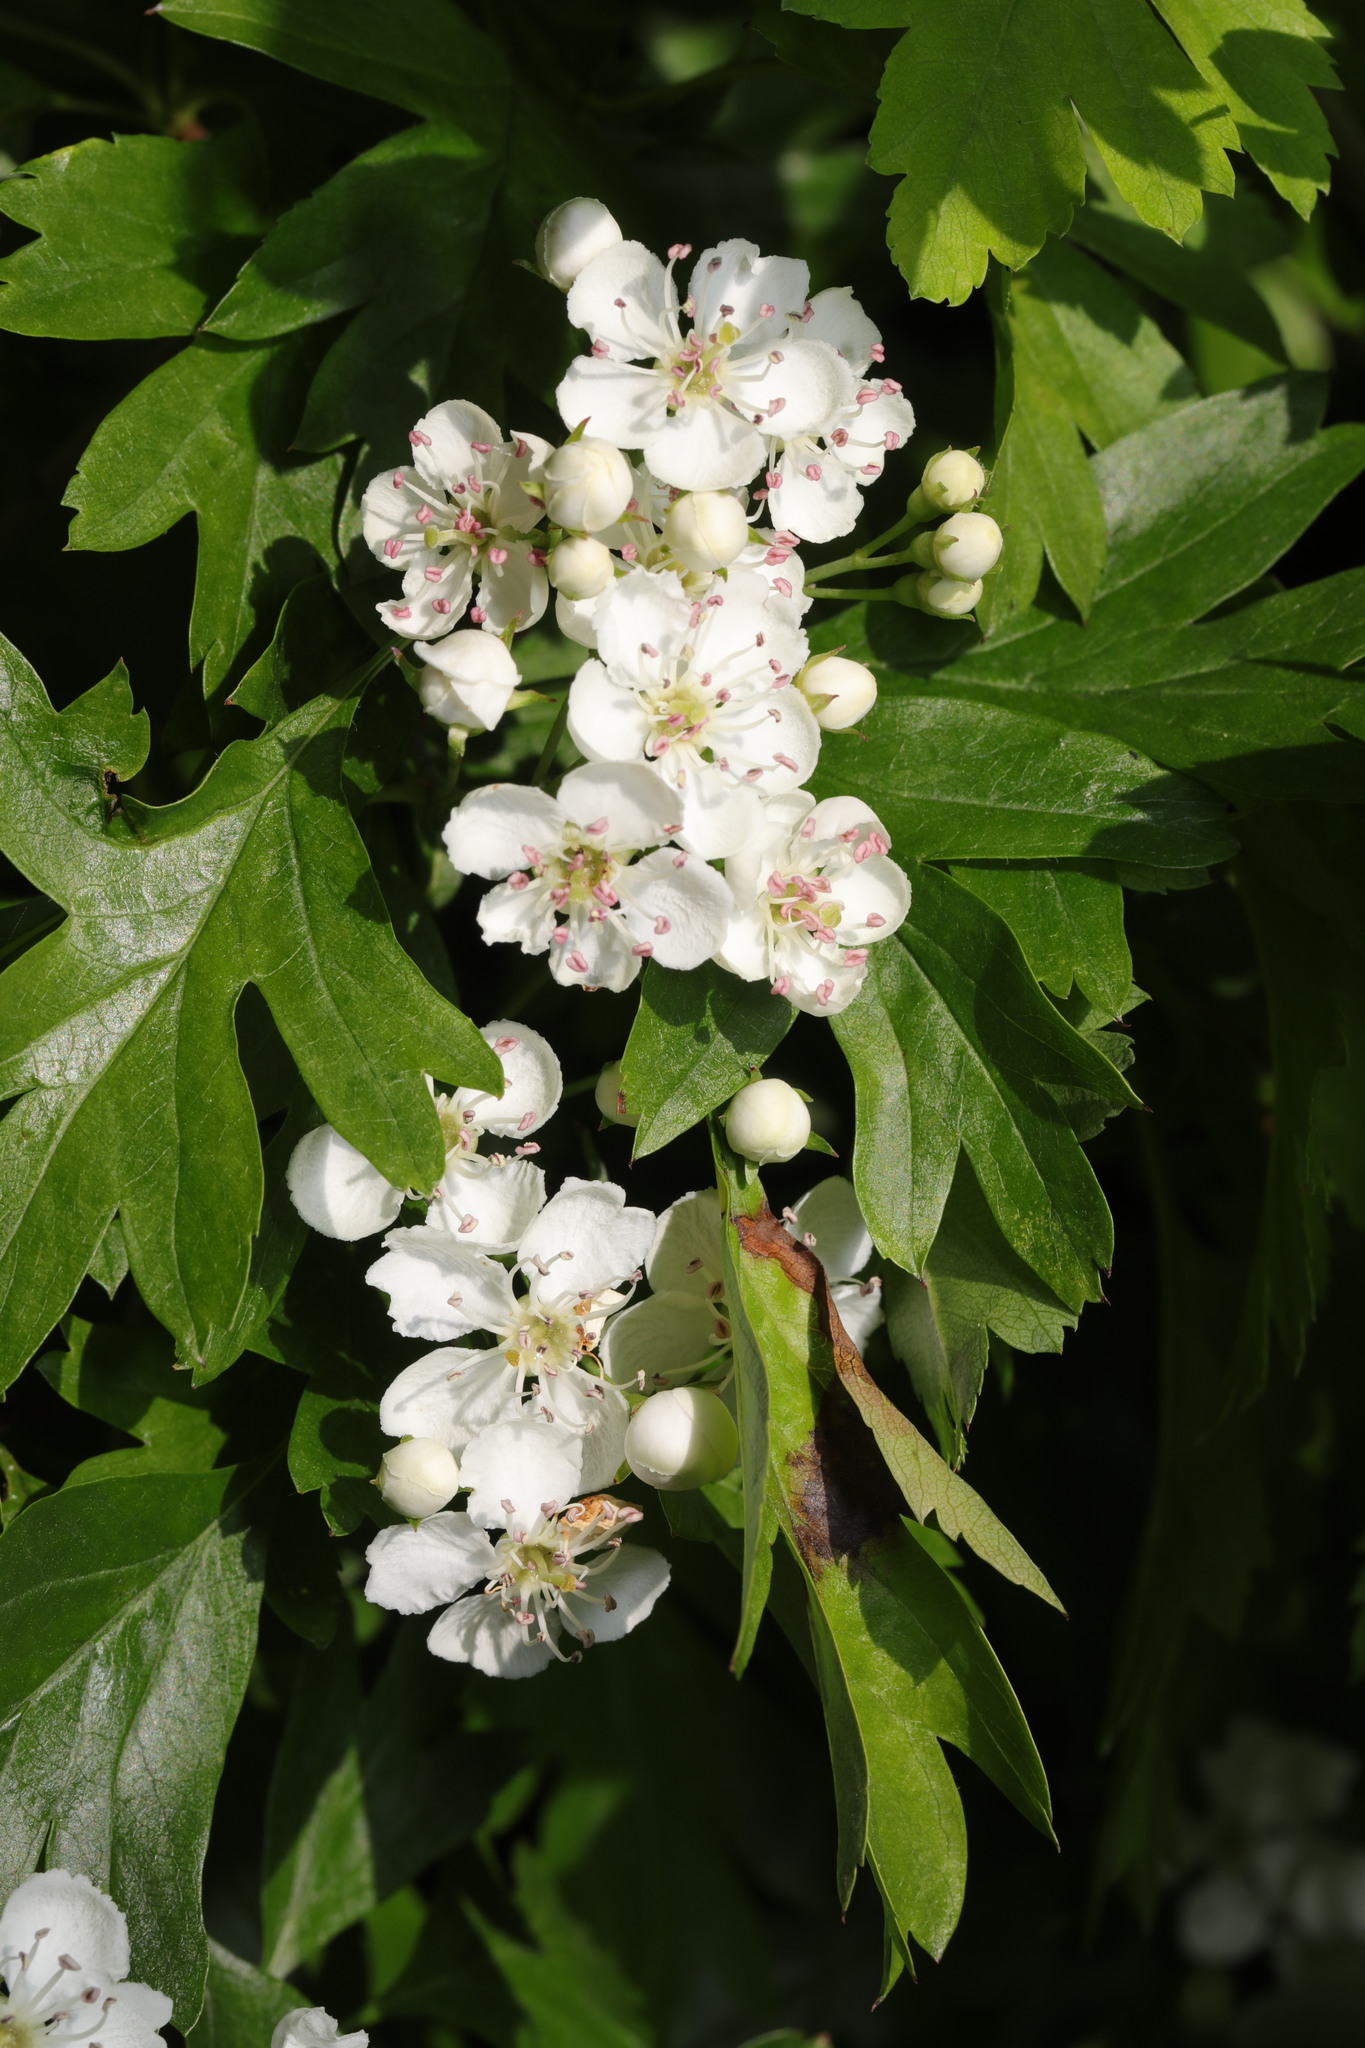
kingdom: Plantae
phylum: Tracheophyta
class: Magnoliopsida
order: Rosales
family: Rosaceae
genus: Crataegus
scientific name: Crataegus monogyna
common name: Hawthorn
